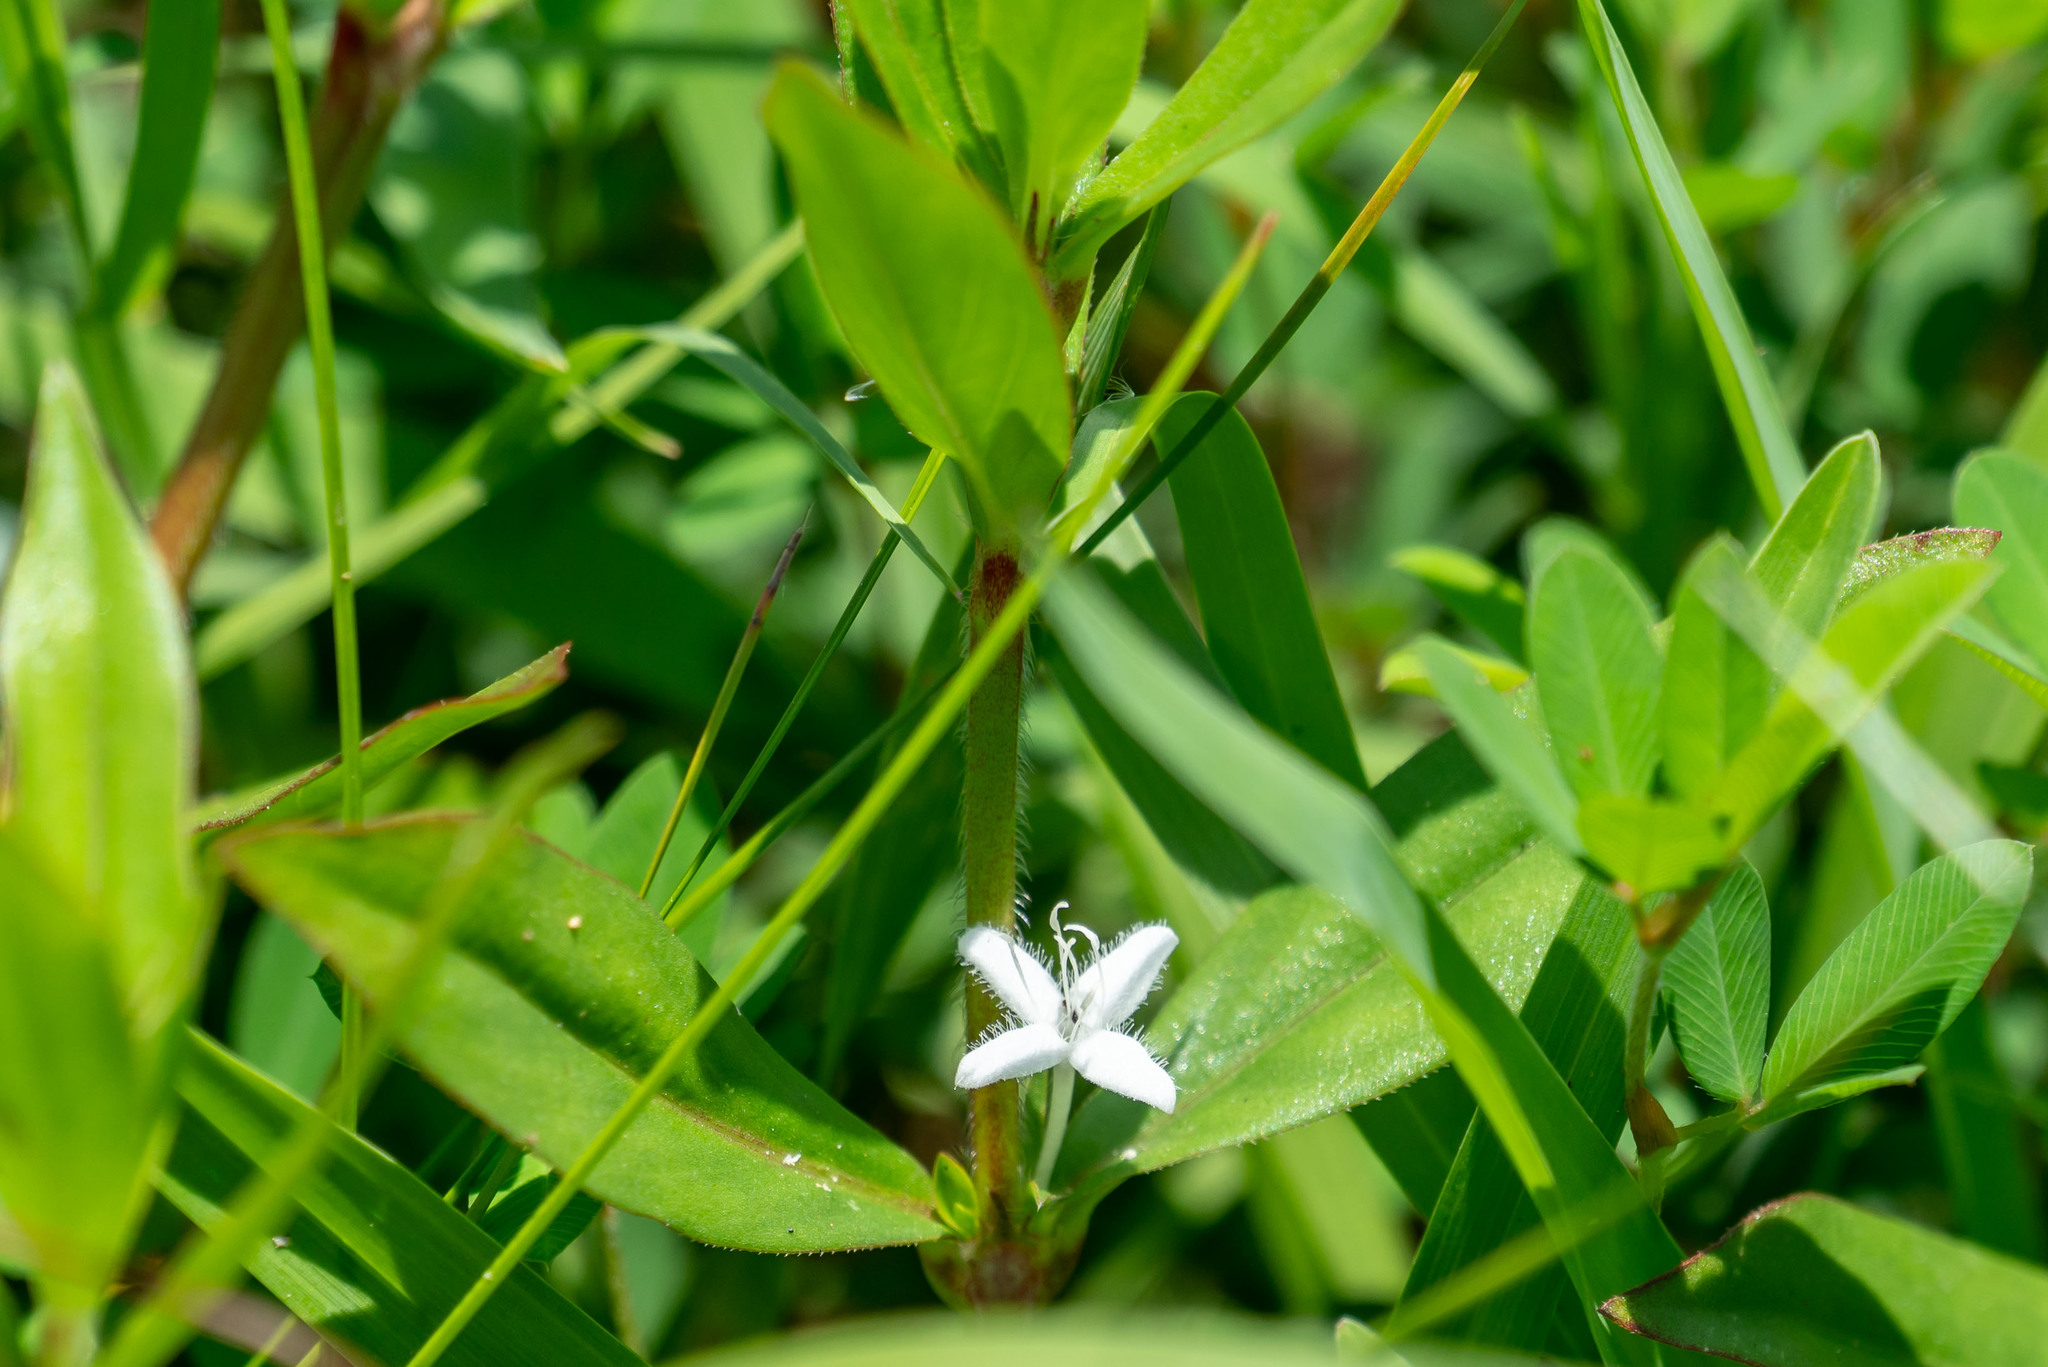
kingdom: Plantae
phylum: Tracheophyta
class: Magnoliopsida
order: Gentianales
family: Rubiaceae
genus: Diodia
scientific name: Diodia virginiana
